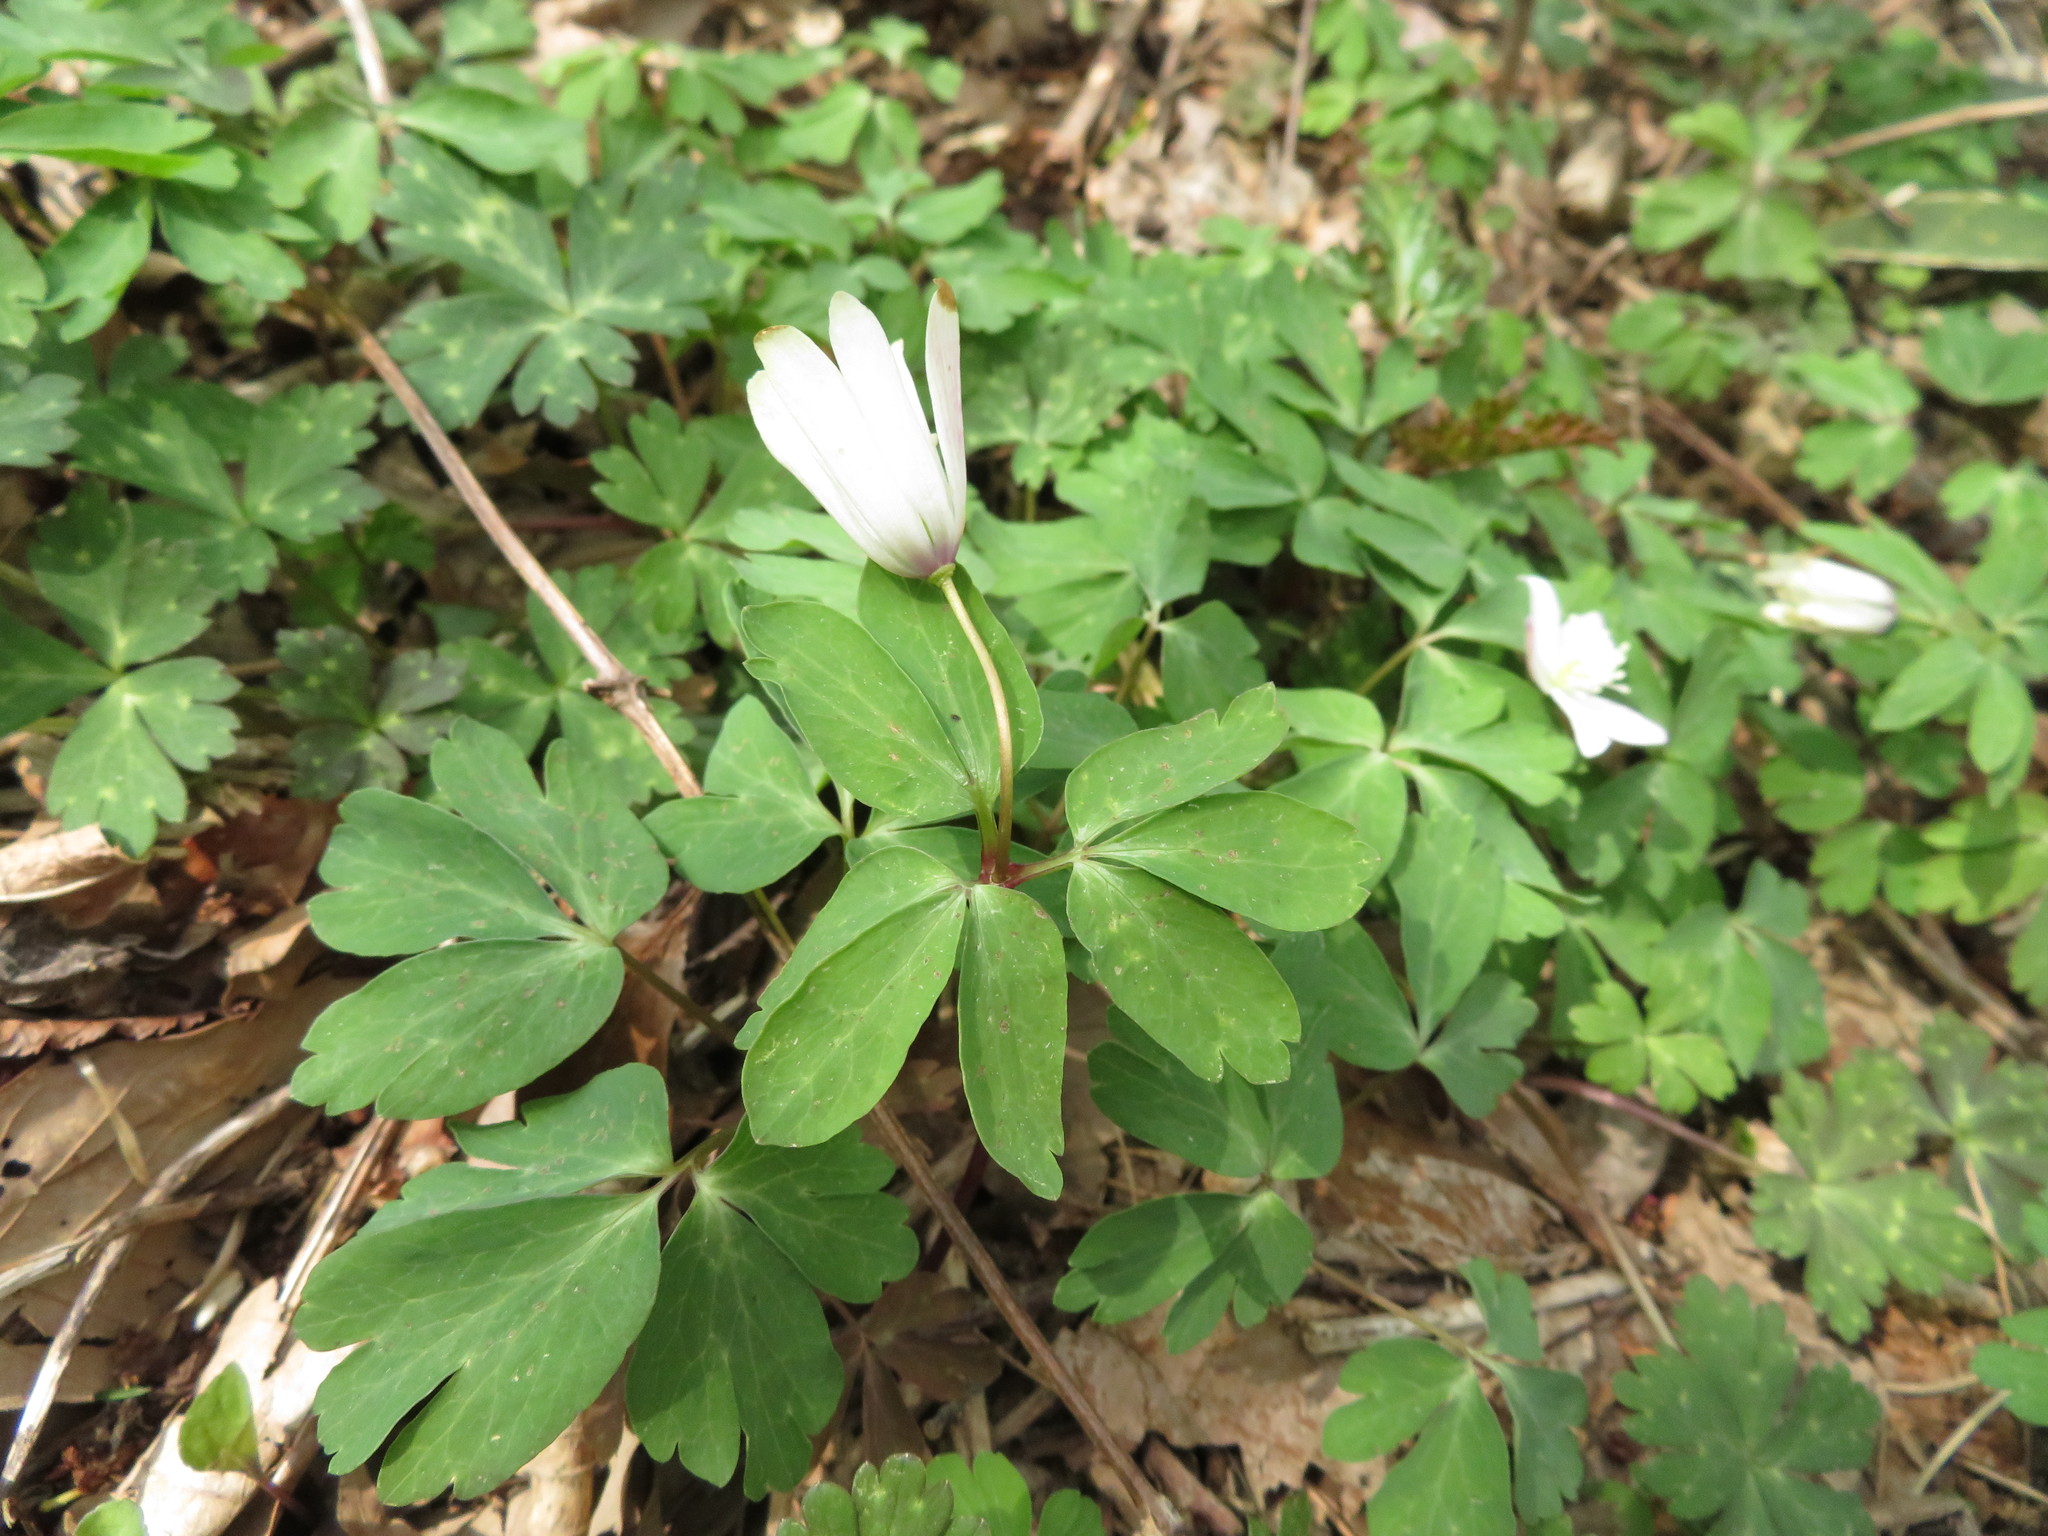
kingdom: Plantae
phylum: Tracheophyta
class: Magnoliopsida
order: Ranunculales
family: Ranunculaceae
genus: Anemone
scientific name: Anemone raddeana
